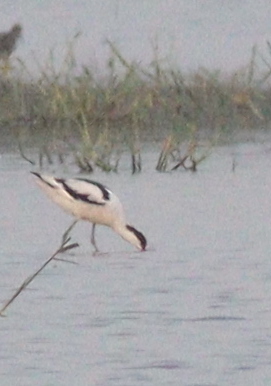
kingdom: Animalia
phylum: Chordata
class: Aves
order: Charadriiformes
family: Recurvirostridae
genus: Recurvirostra
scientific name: Recurvirostra avosetta
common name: Pied avocet
